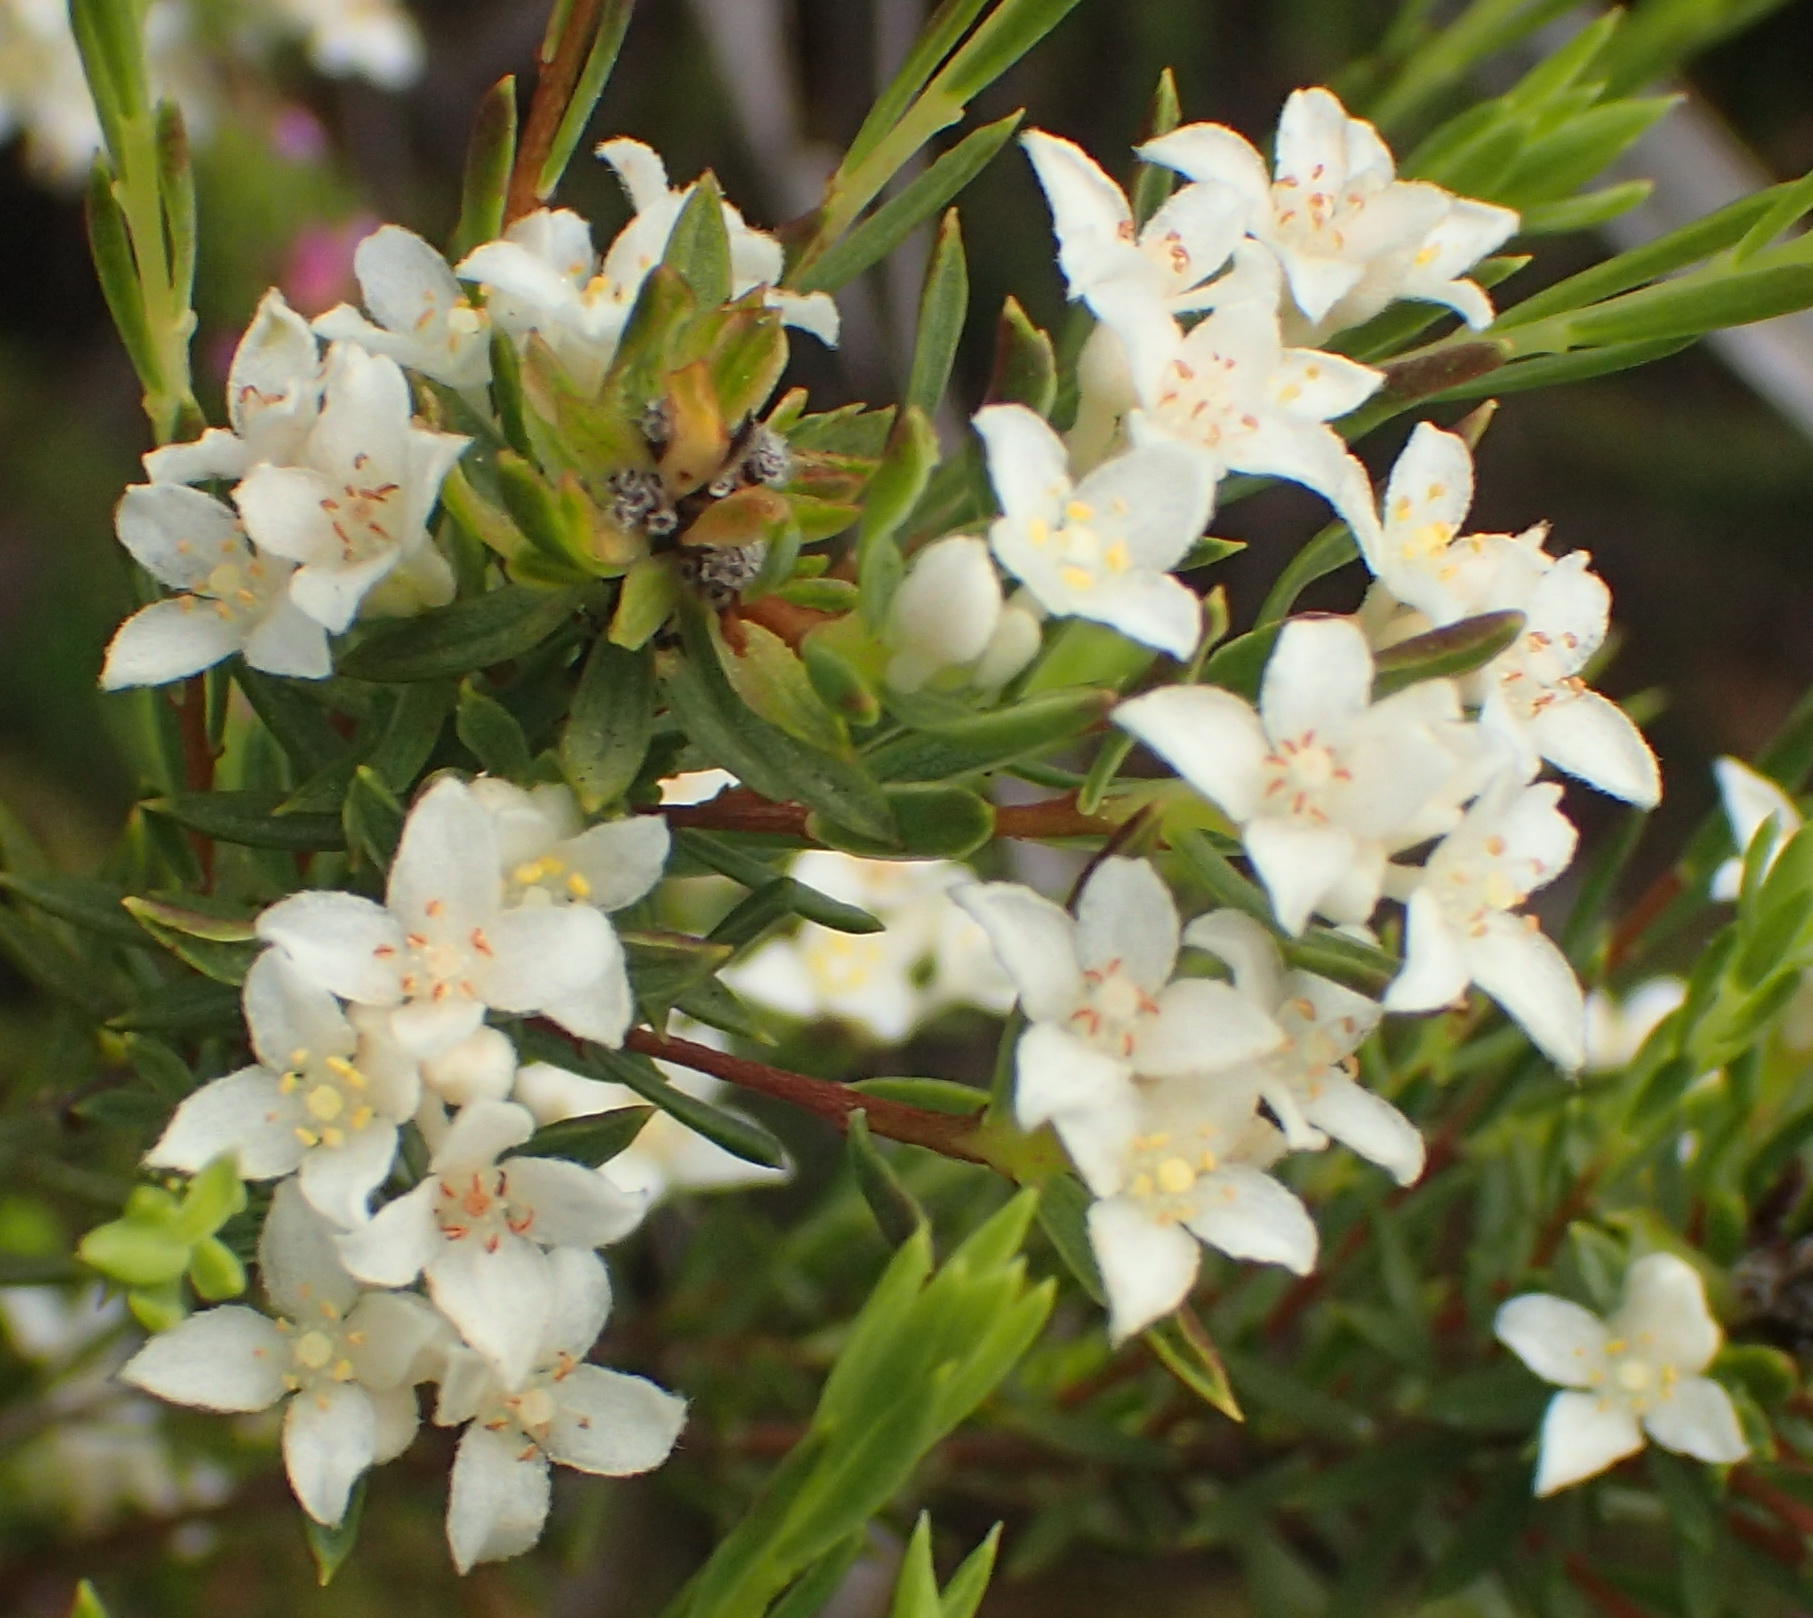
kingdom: Plantae
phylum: Tracheophyta
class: Magnoliopsida
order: Malvales
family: Thymelaeaceae
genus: Lachnaea
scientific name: Lachnaea diosmoides
